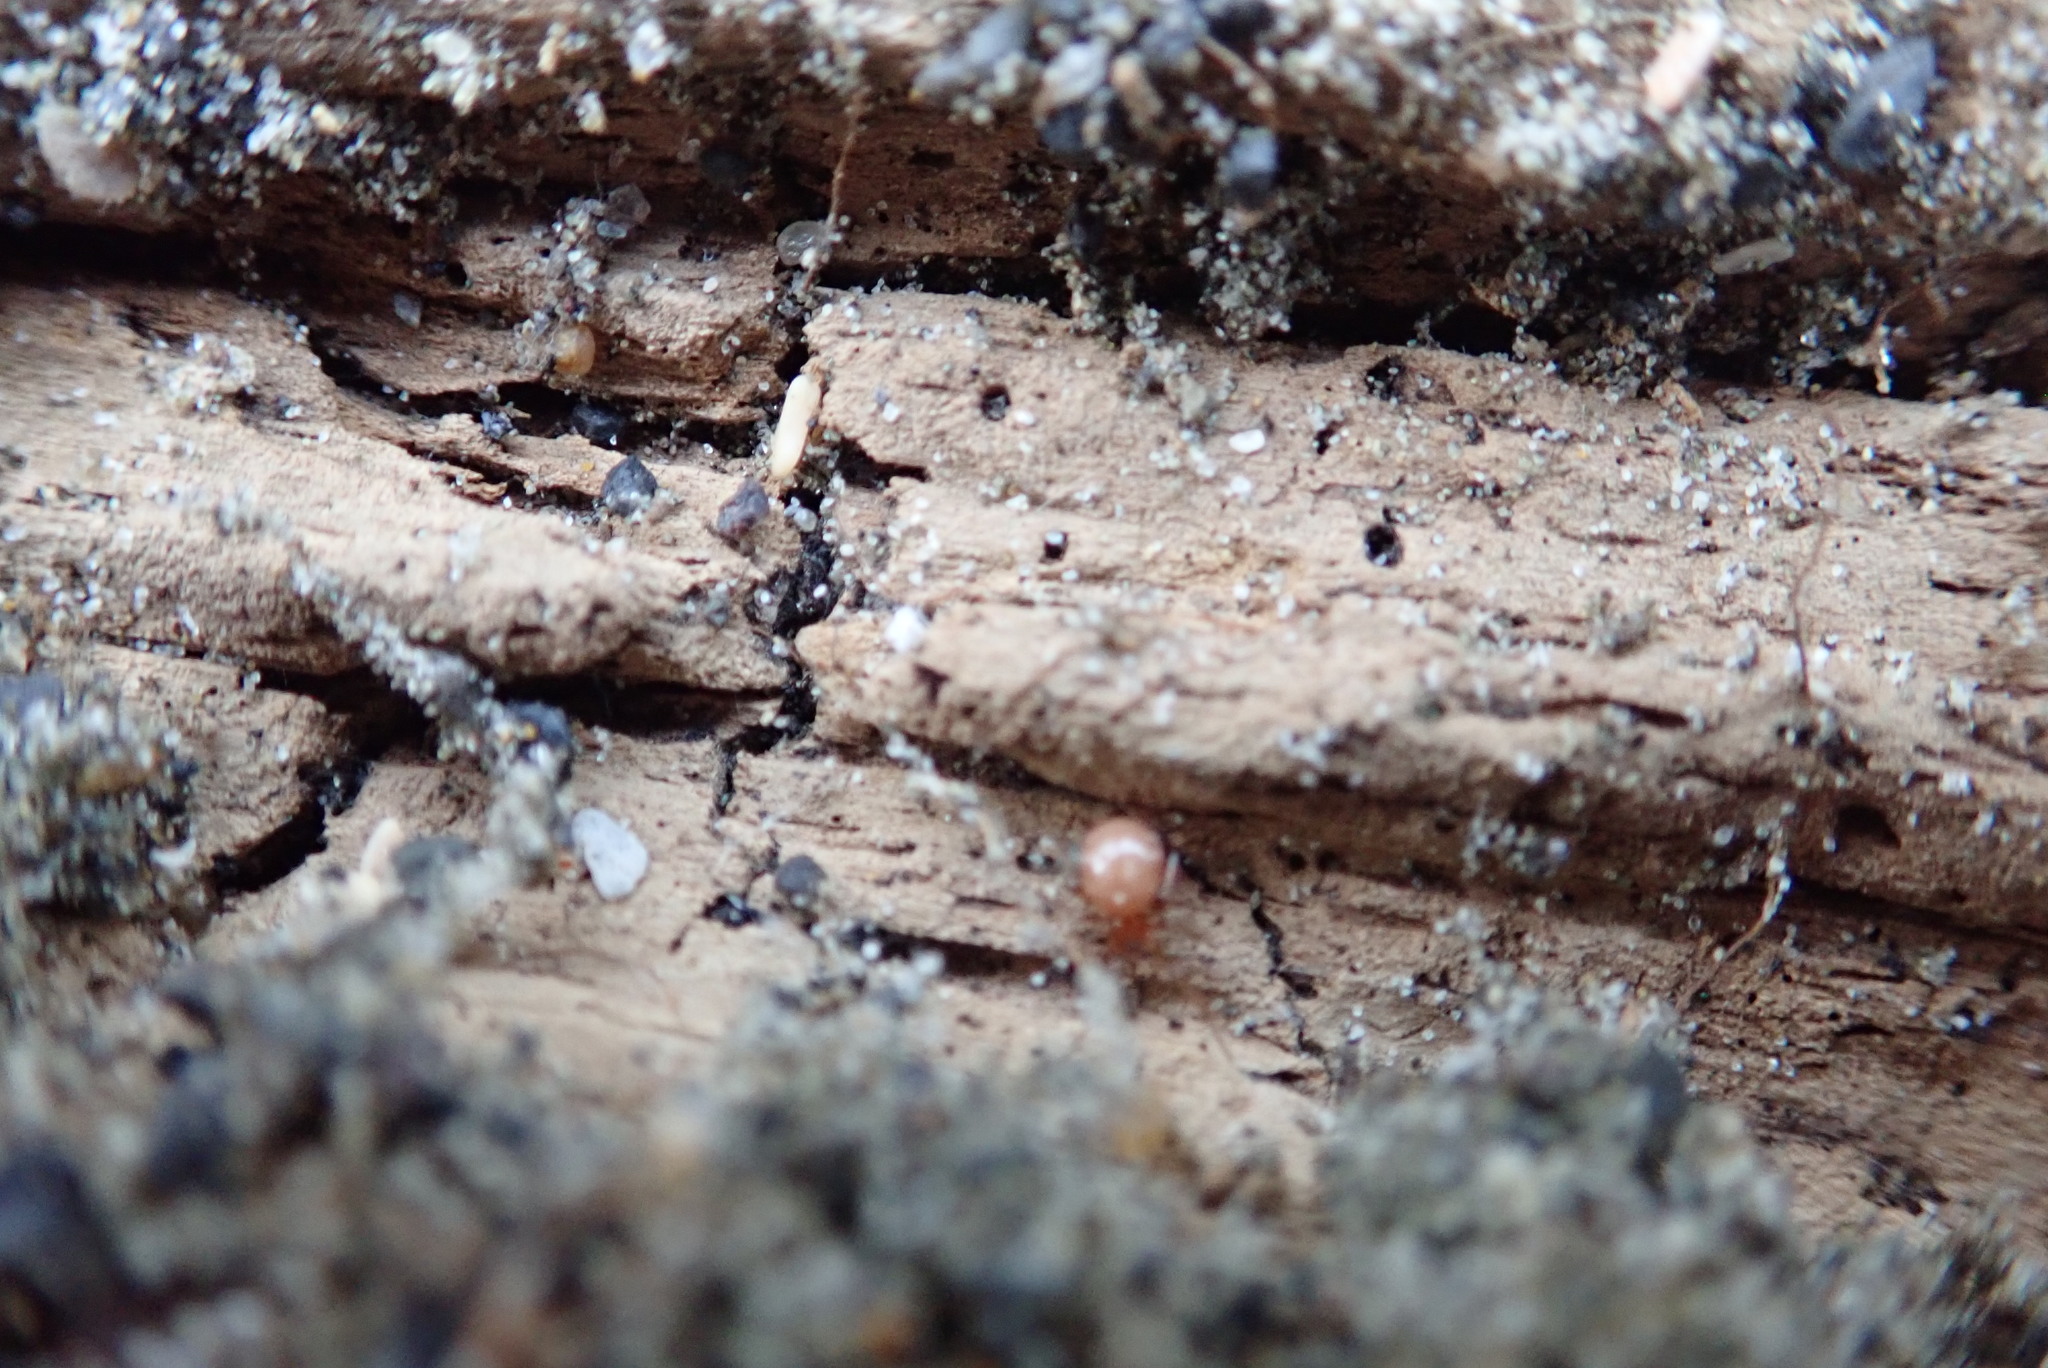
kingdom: Animalia
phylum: Arthropoda
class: Arachnida
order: Araneae
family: Theridiidae
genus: Latrodectus
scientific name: Latrodectus katipo
